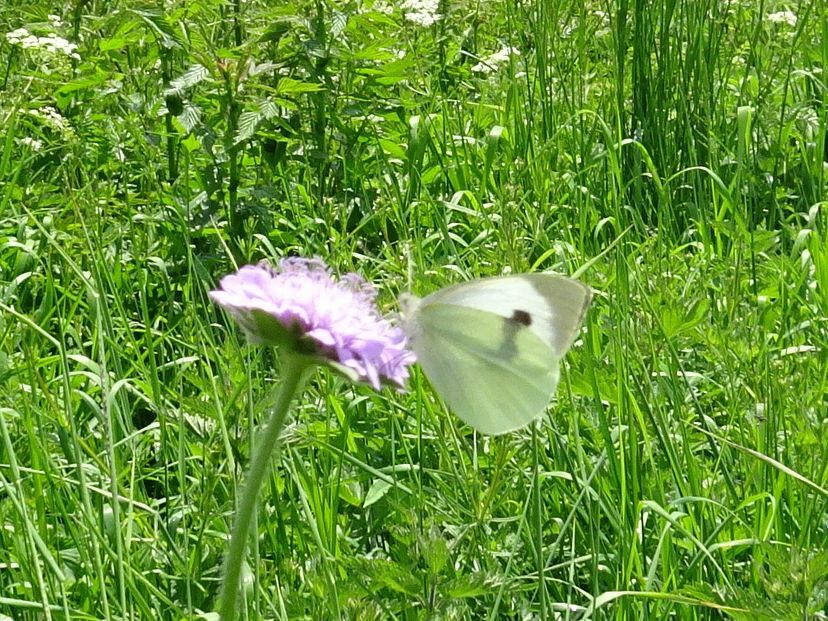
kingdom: Animalia
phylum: Arthropoda
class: Insecta
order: Lepidoptera
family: Pieridae
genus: Pieris
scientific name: Pieris brassicae
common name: Large white
